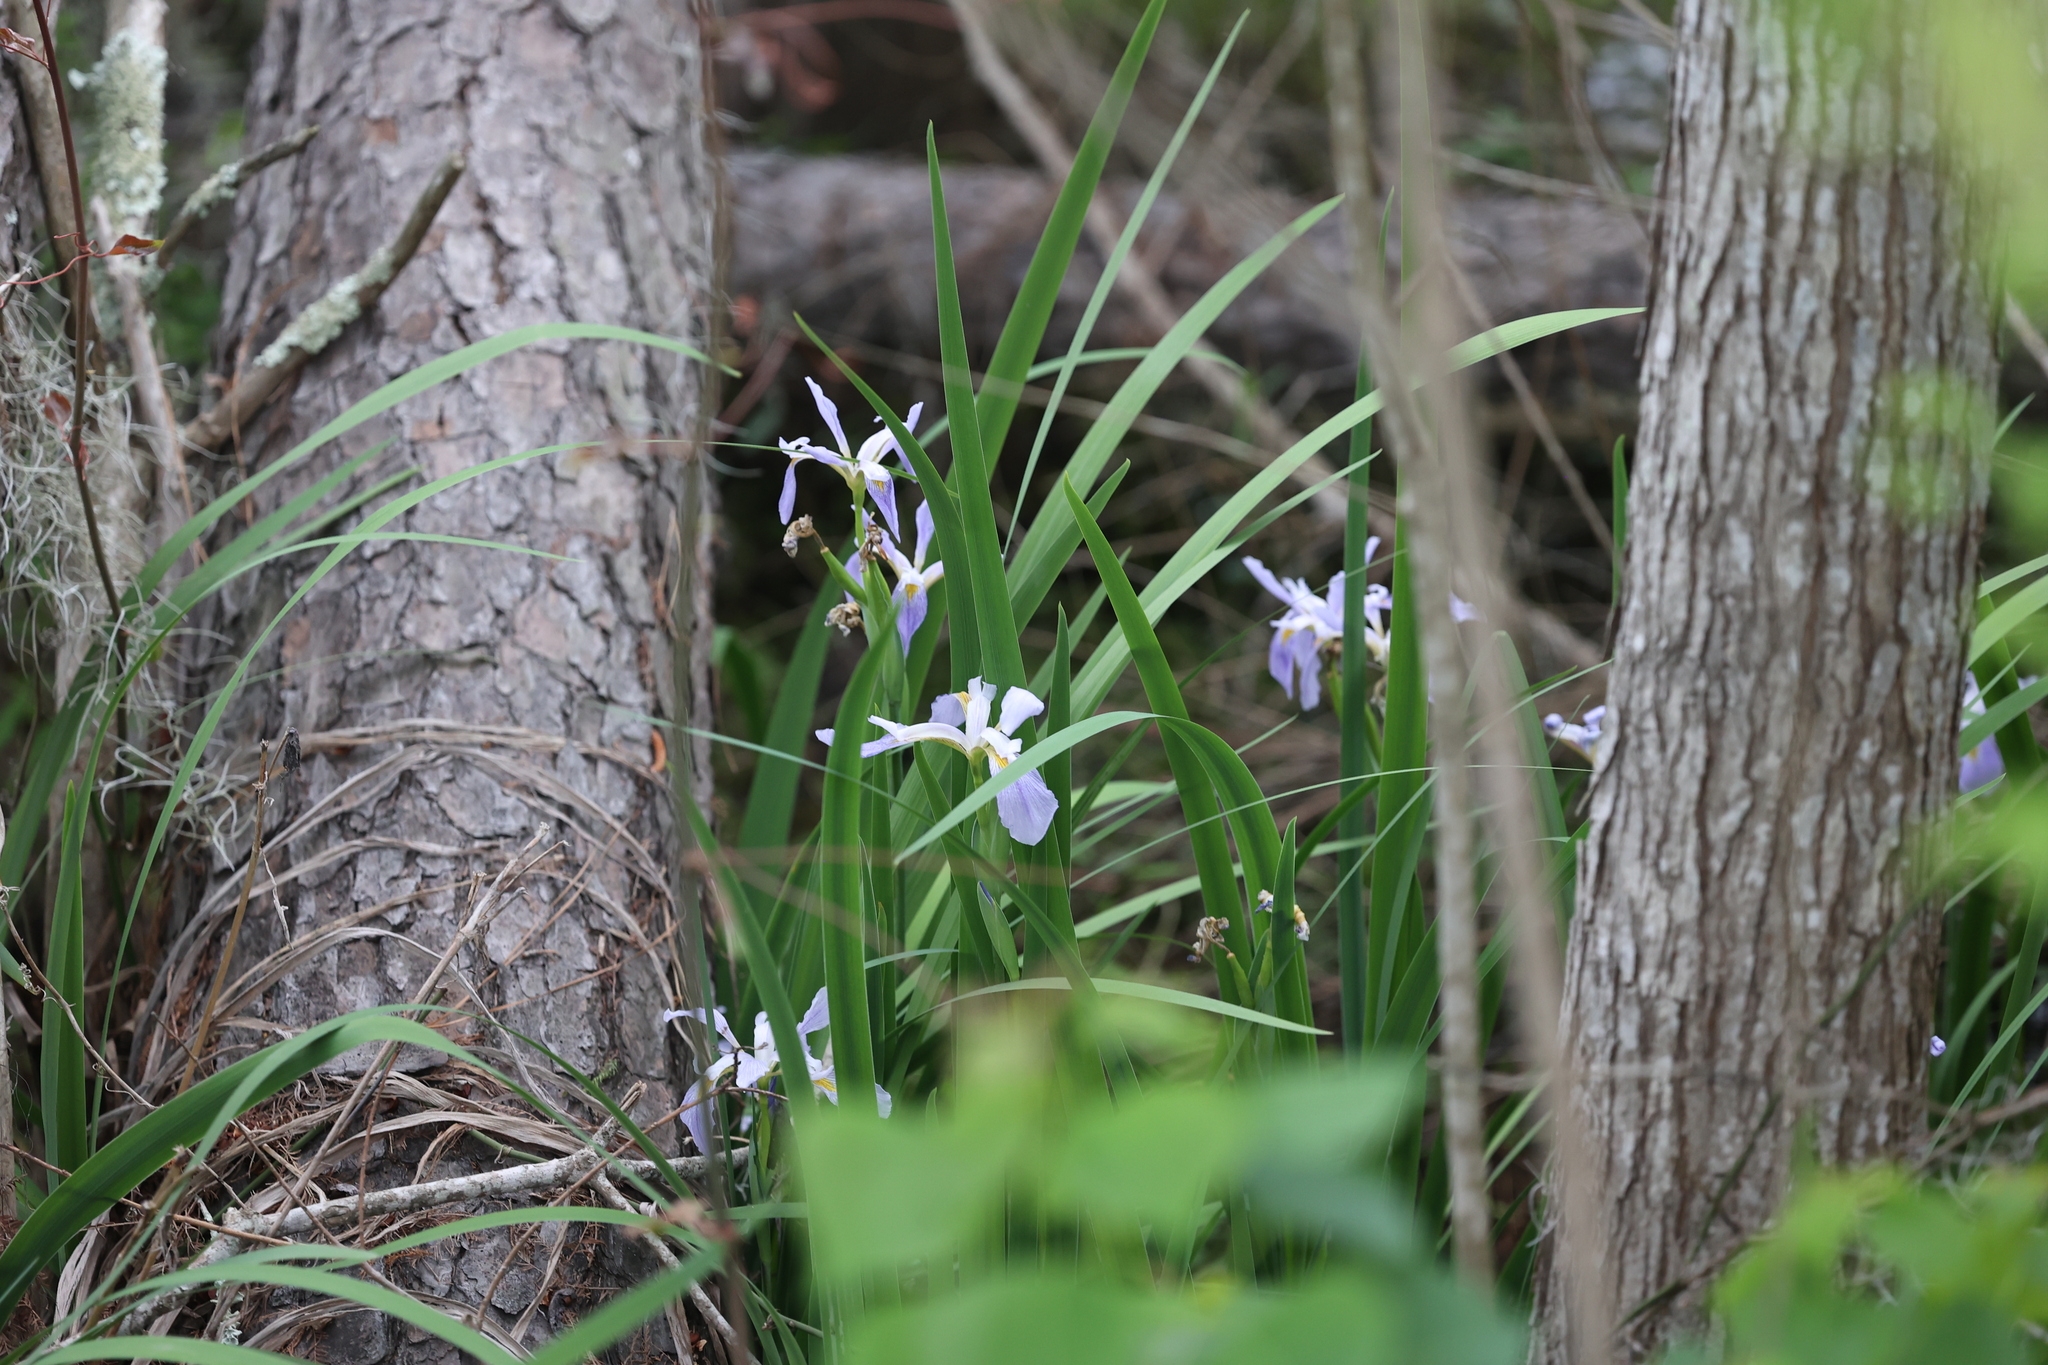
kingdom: Plantae
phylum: Tracheophyta
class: Liliopsida
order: Asparagales
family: Iridaceae
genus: Iris
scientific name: Iris virginica
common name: Southern blue flag
